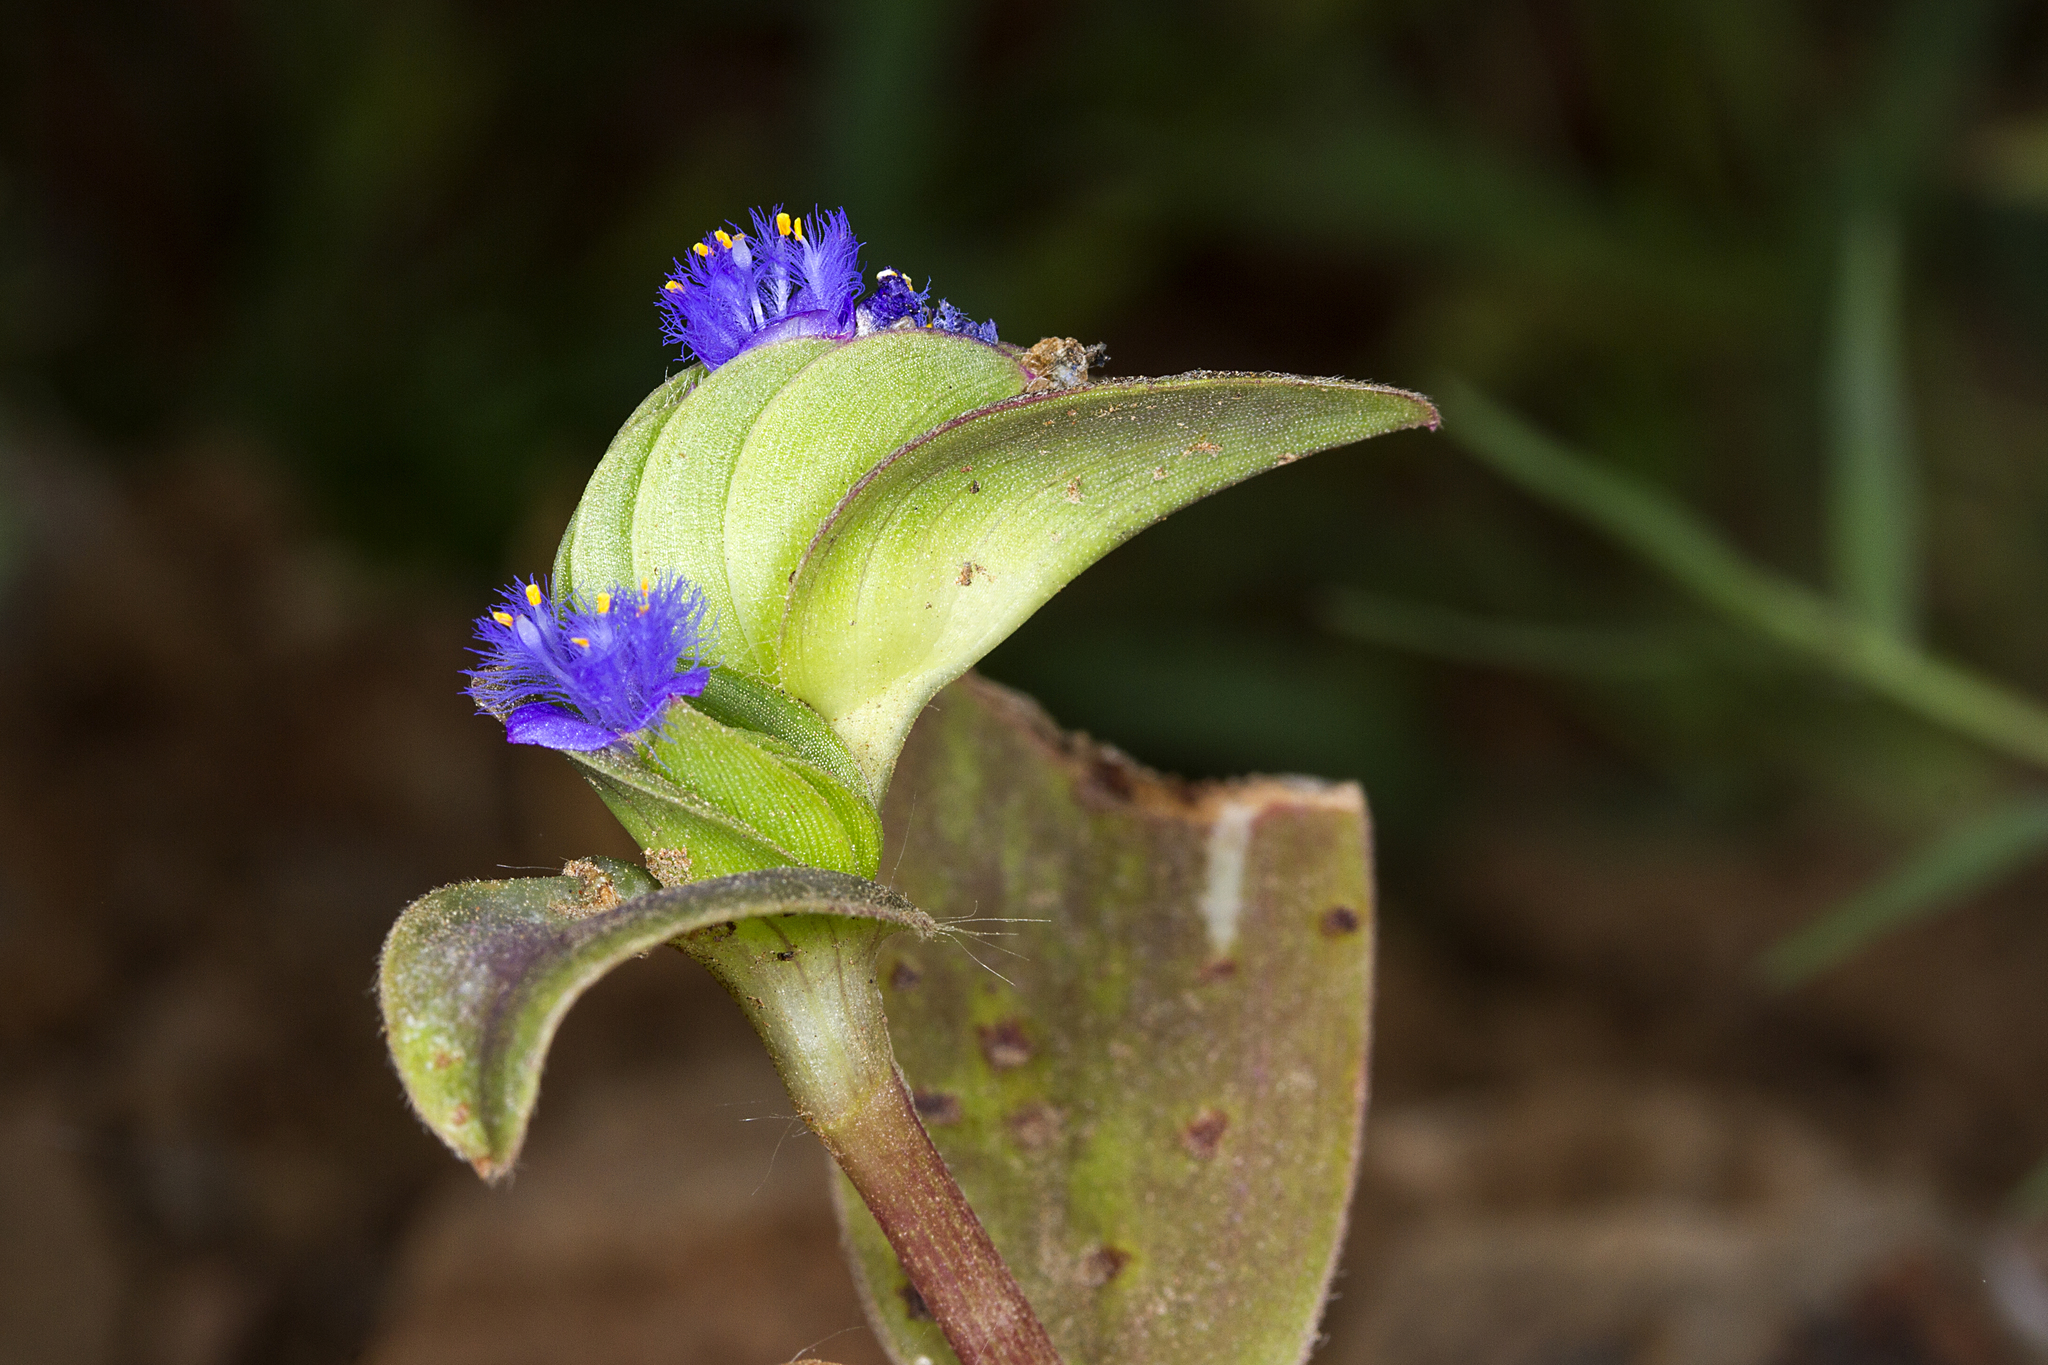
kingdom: Plantae
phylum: Tracheophyta
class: Liliopsida
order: Commelinales
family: Commelinaceae
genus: Cyanotis
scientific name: Cyanotis cristata
